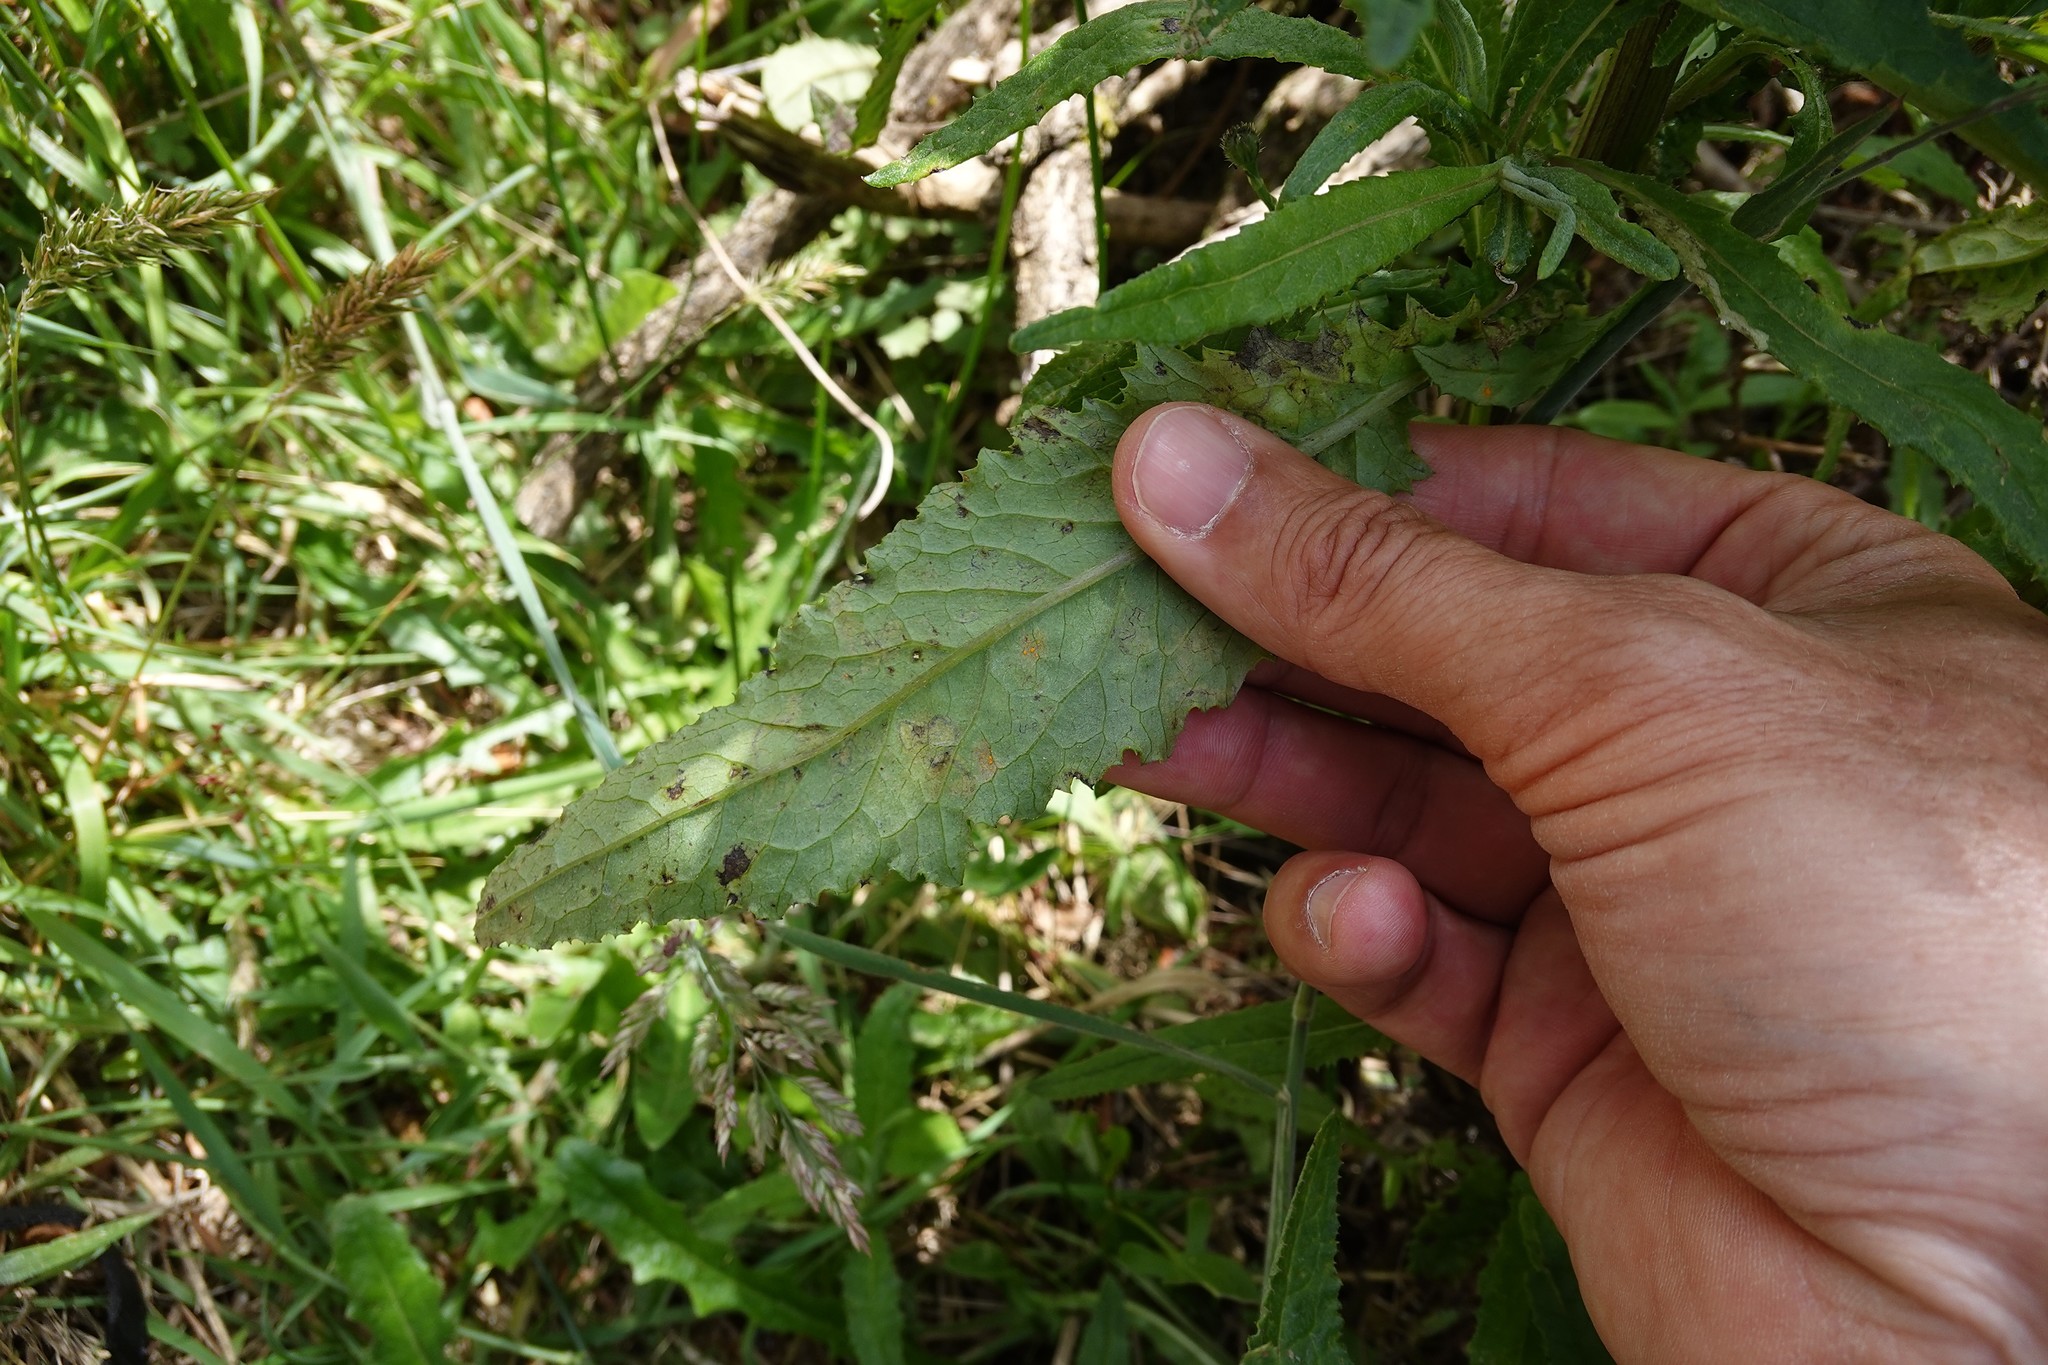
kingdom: Fungi
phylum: Basidiomycota
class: Pucciniomycetes
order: Pucciniales
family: Coleosporiaceae
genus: Coleosporium
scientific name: Coleosporium tussilaginis
